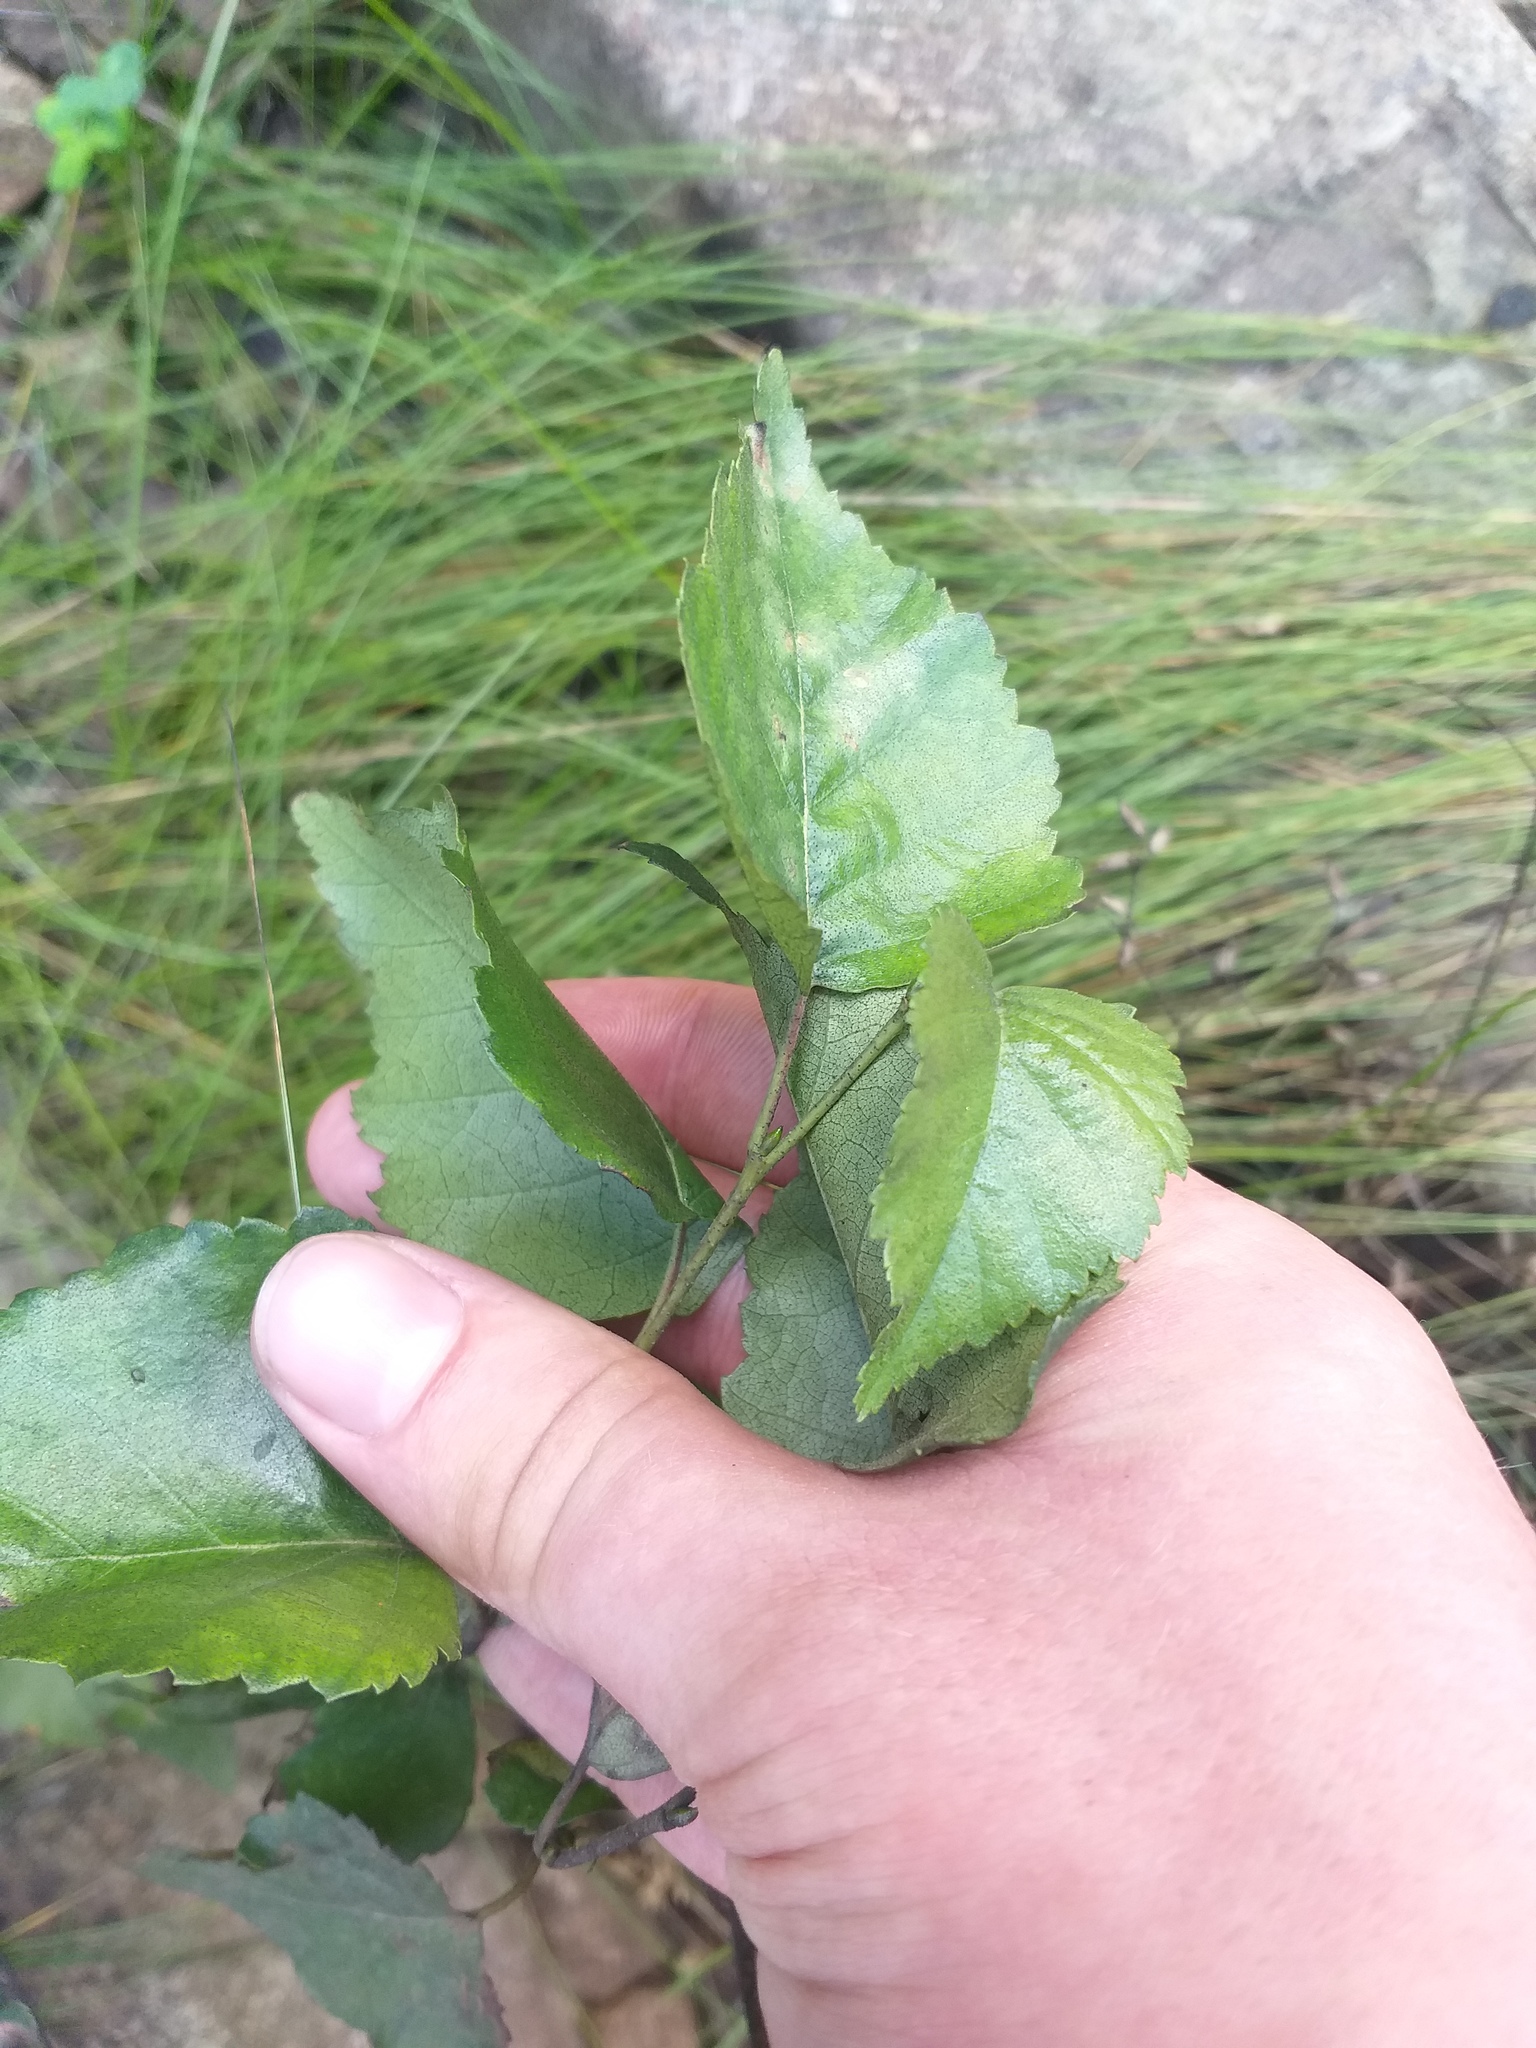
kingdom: Plantae
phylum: Tracheophyta
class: Magnoliopsida
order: Fagales
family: Betulaceae
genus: Betula
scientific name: Betula pendula
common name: Silver birch
